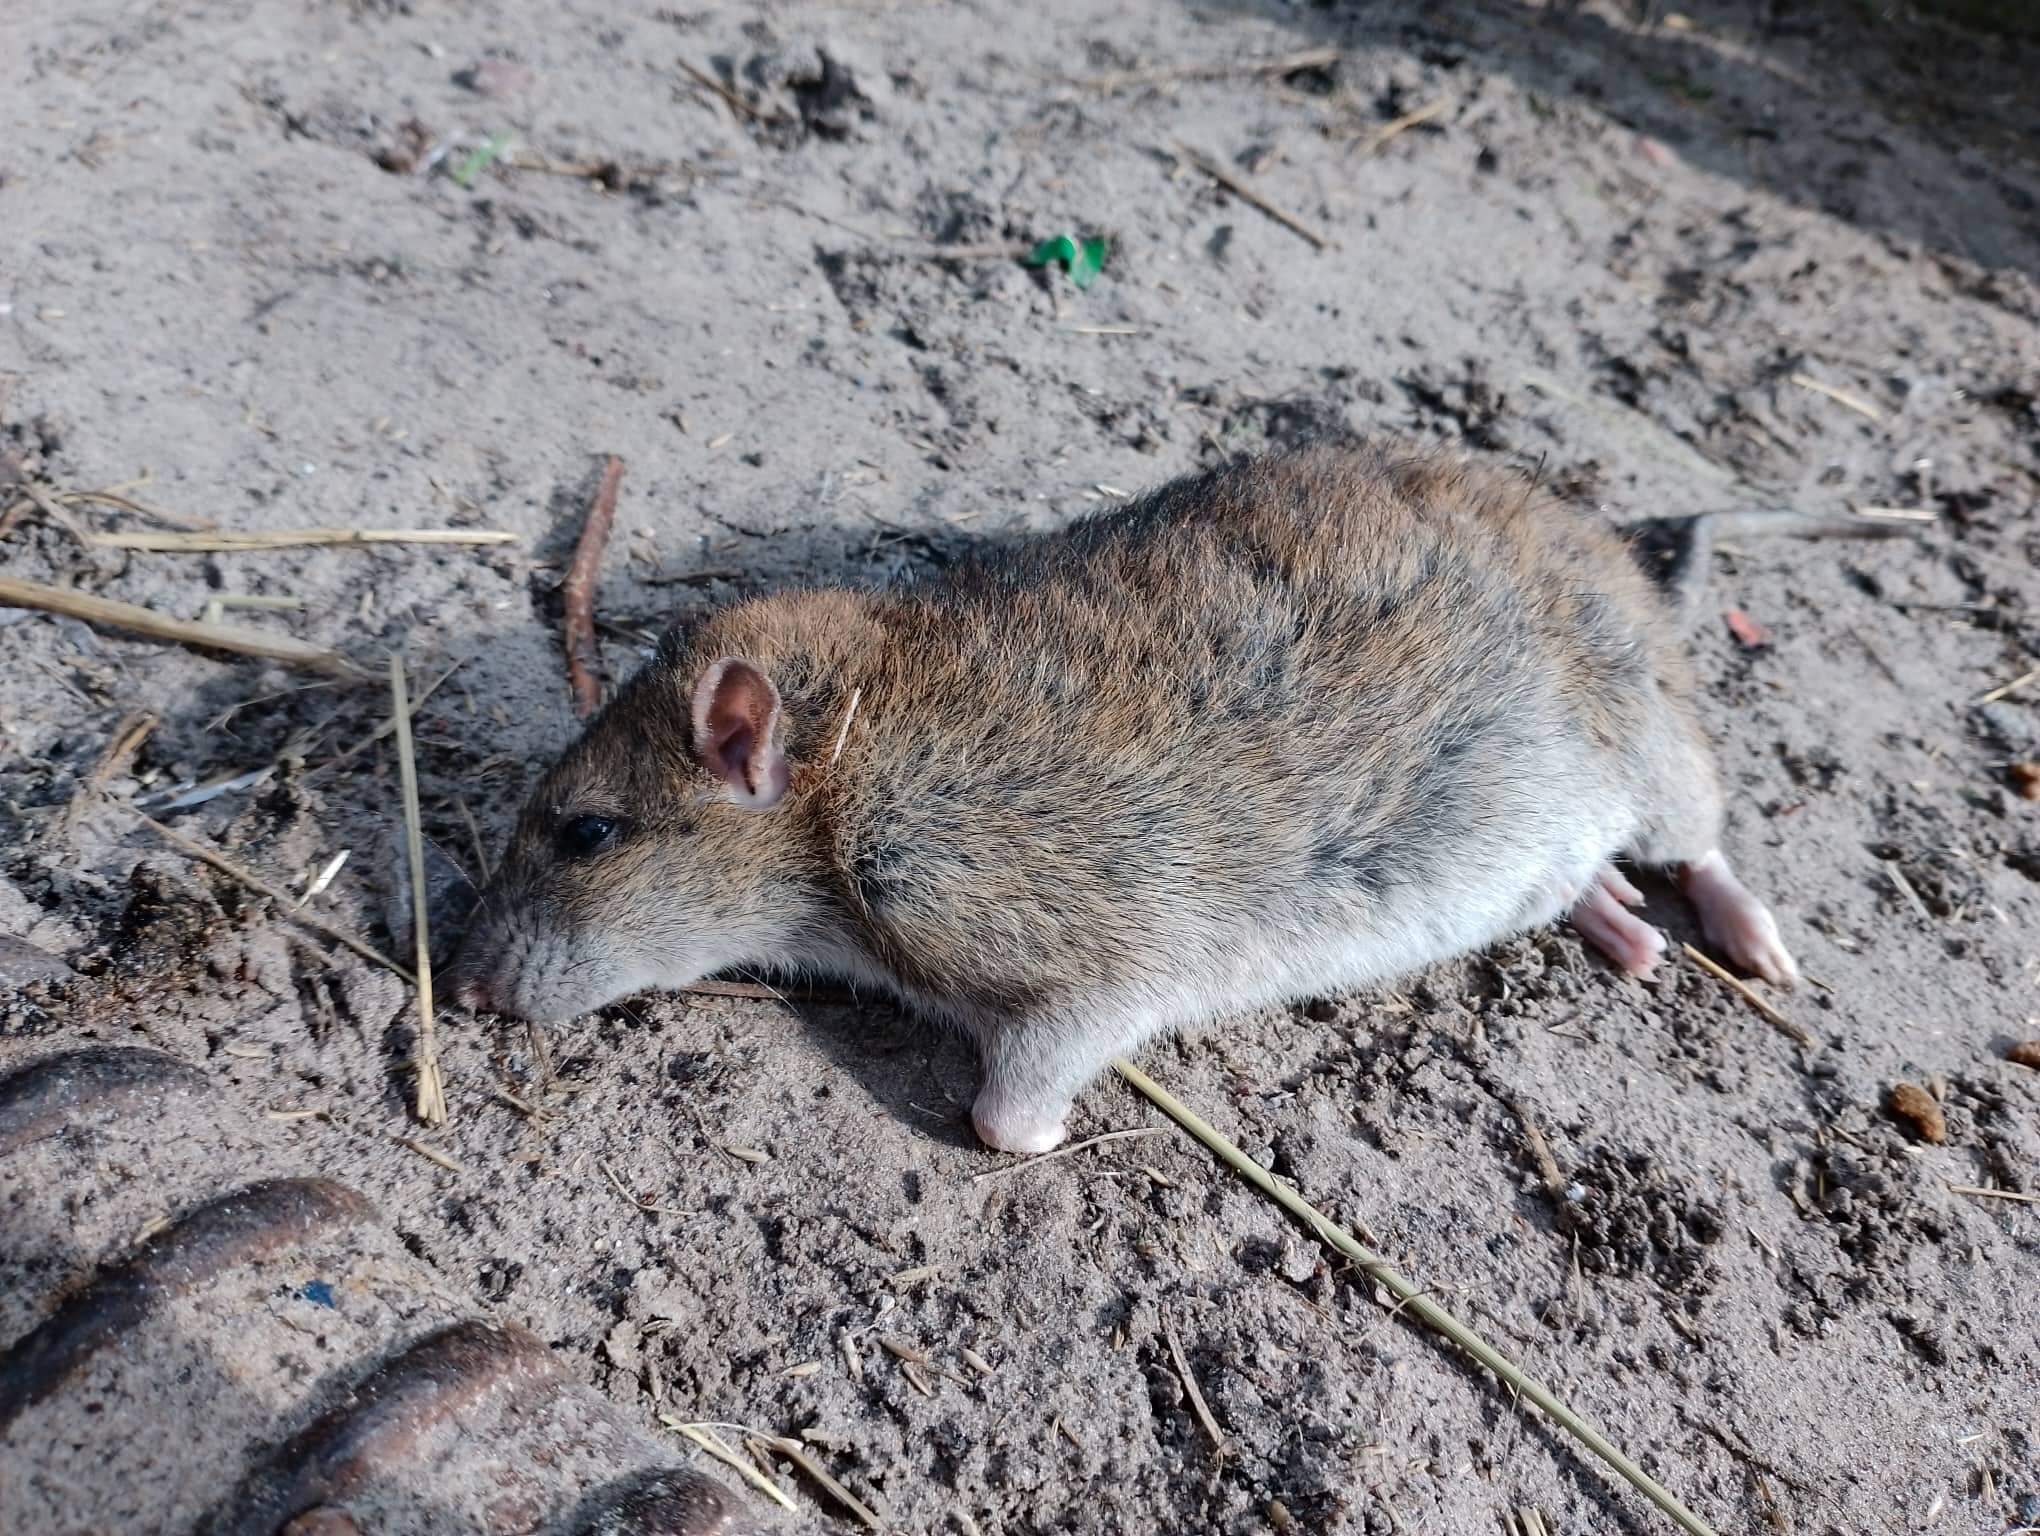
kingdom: Animalia
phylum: Chordata
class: Mammalia
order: Rodentia
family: Muridae
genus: Rattus
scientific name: Rattus norvegicus
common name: Brown rat
